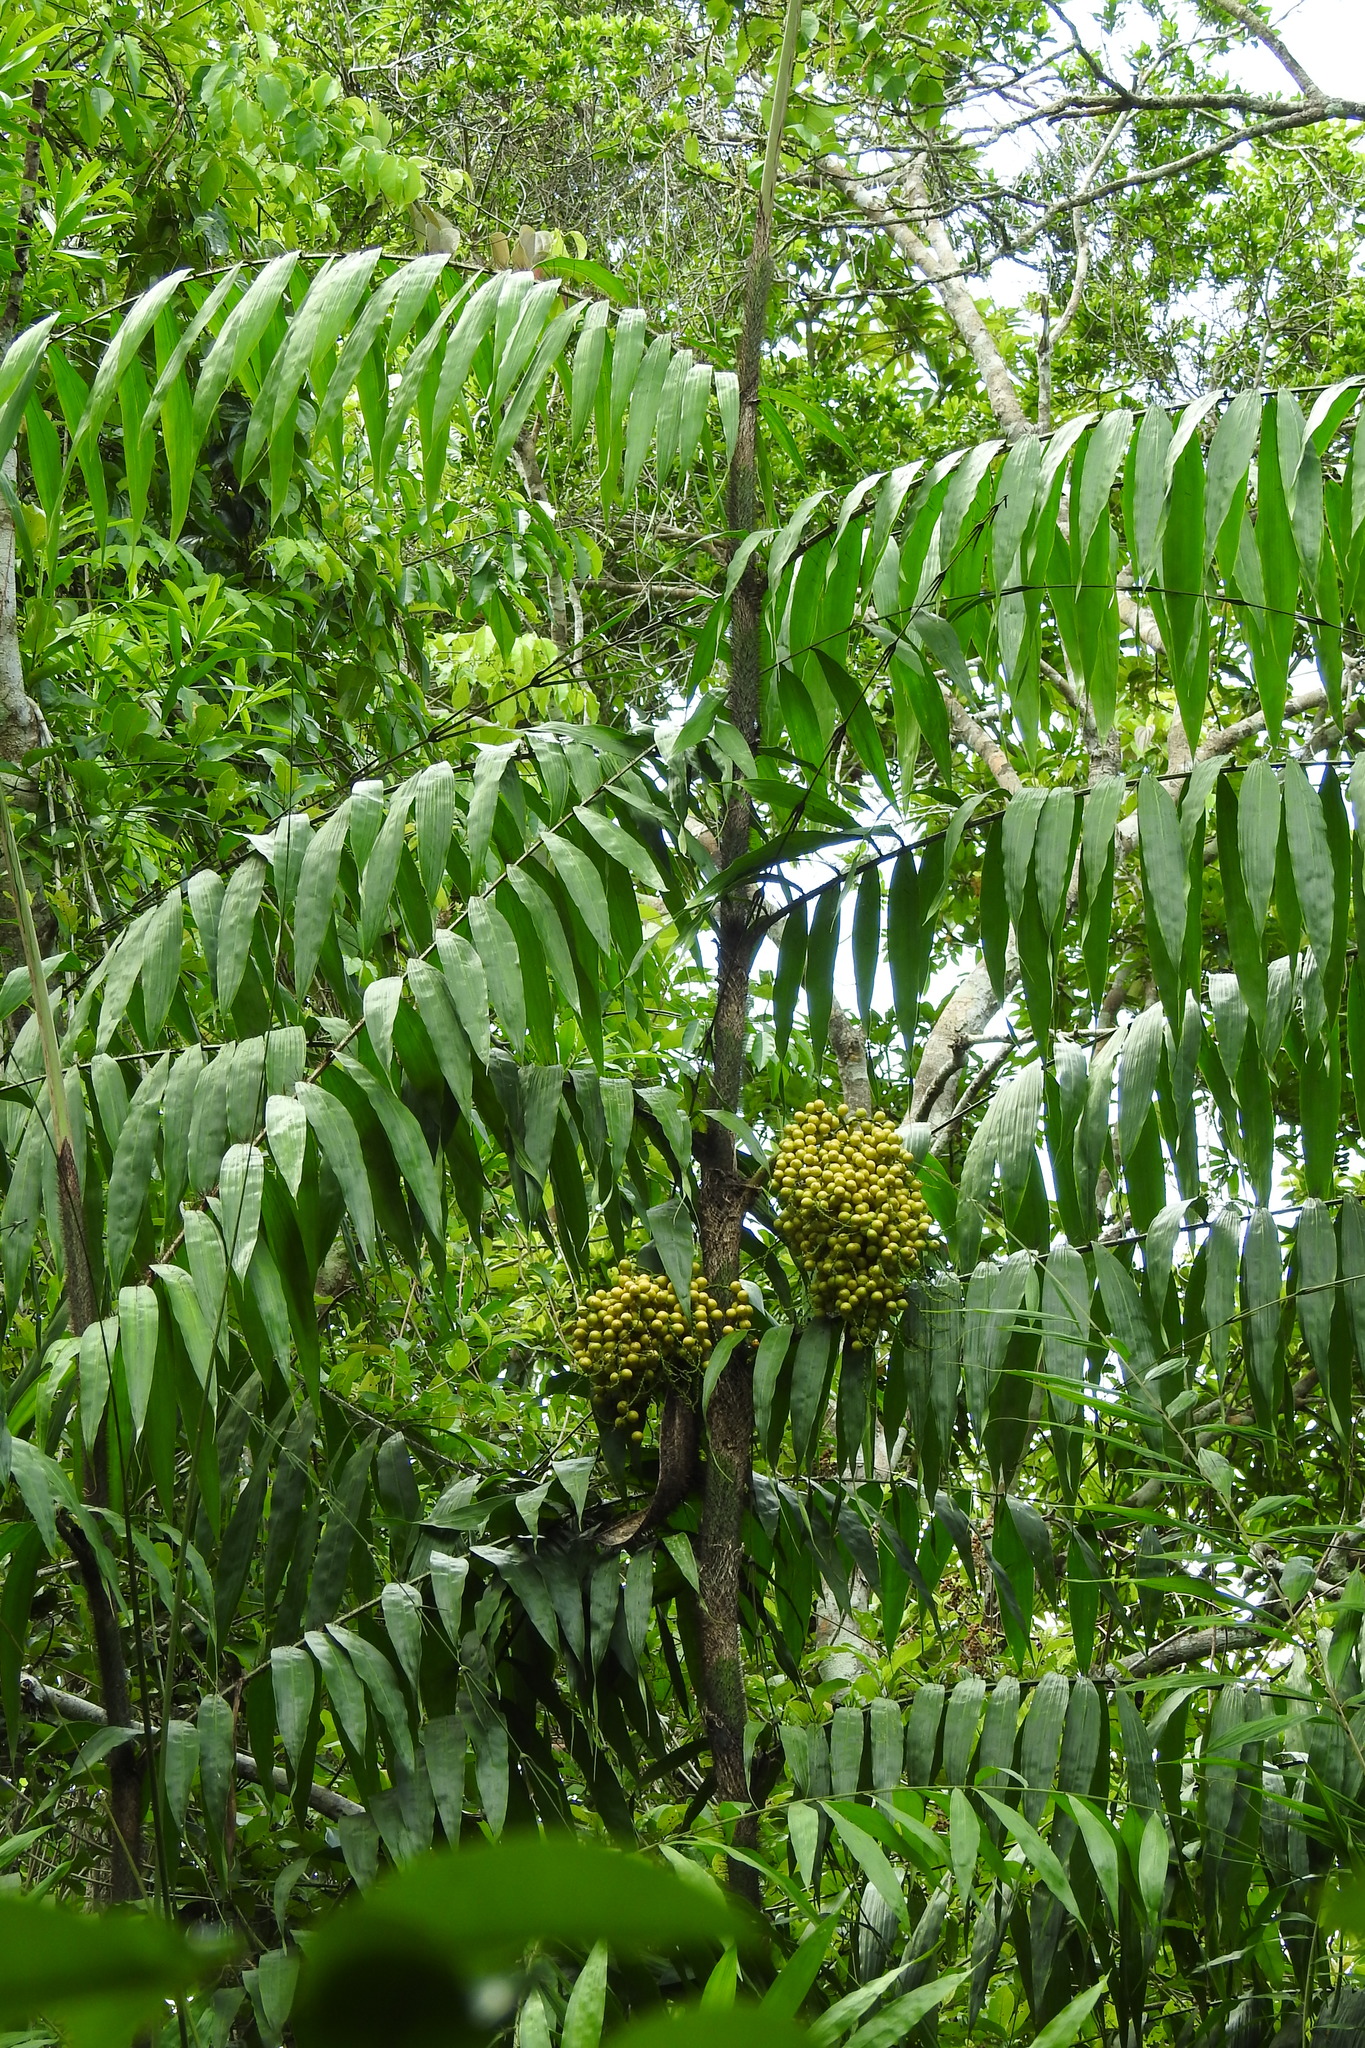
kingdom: Plantae
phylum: Tracheophyta
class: Liliopsida
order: Arecales
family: Arecaceae
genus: Desmoncus
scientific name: Desmoncus orthacanthos
